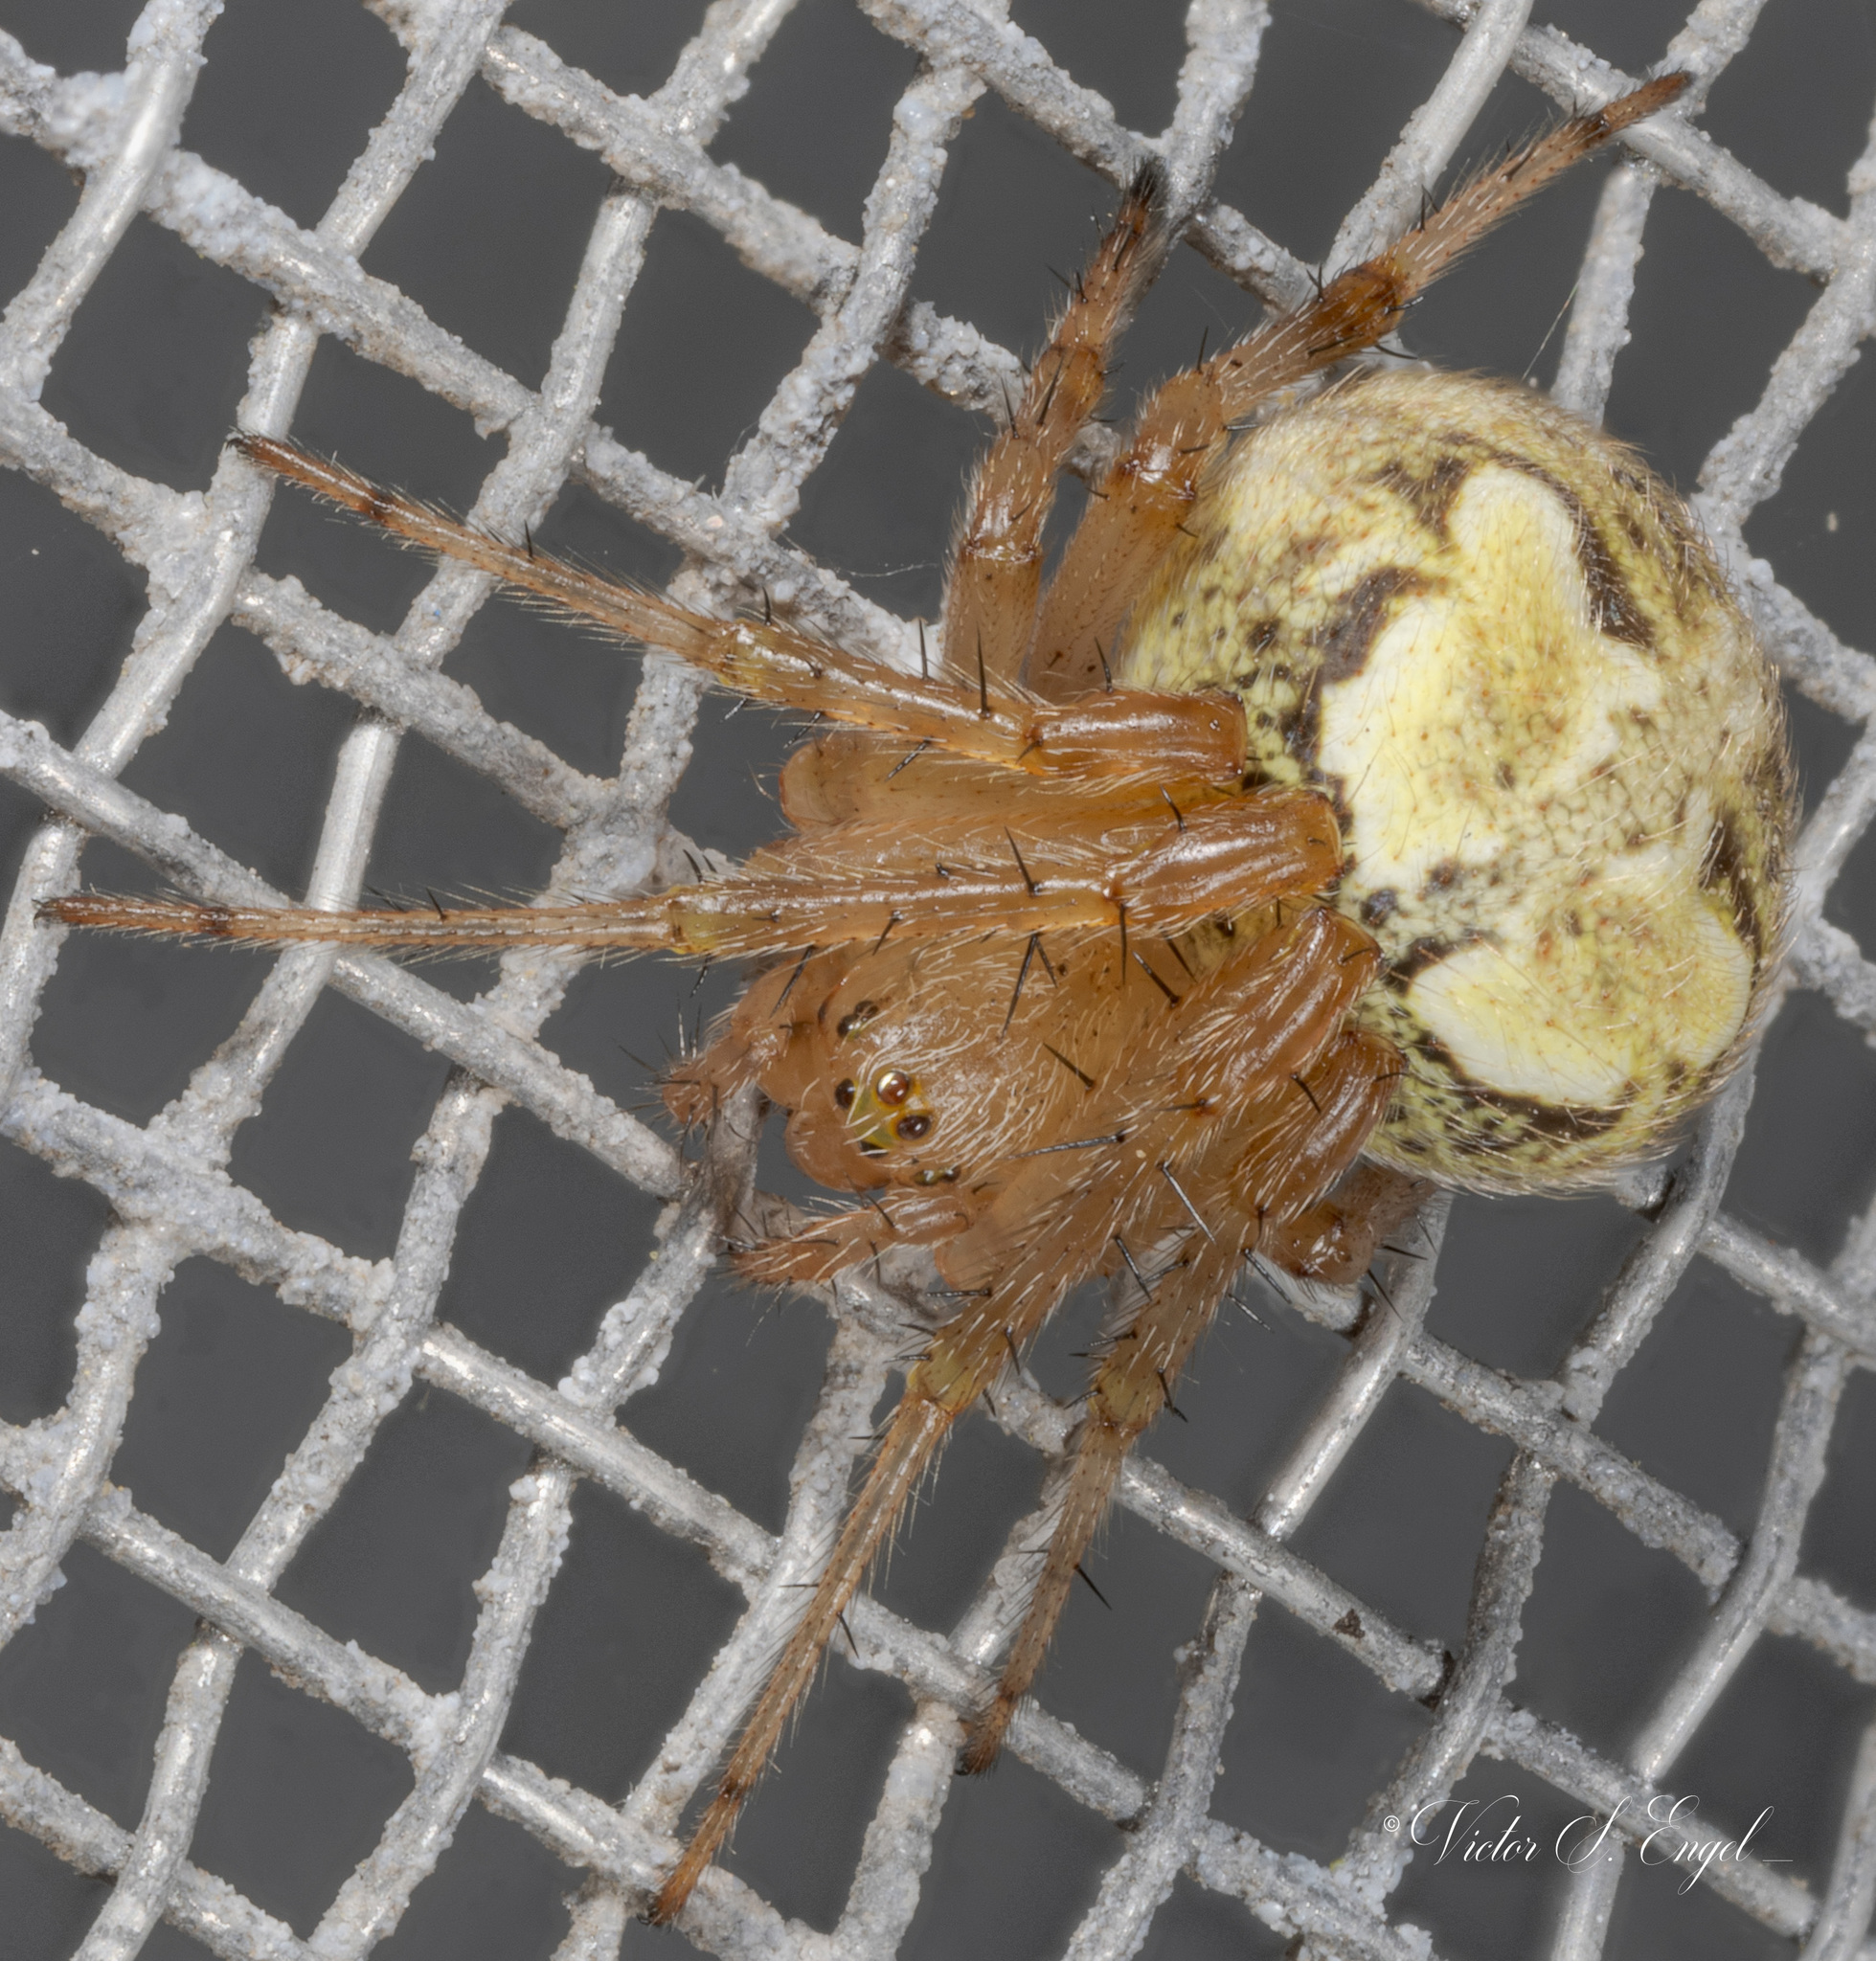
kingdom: Animalia
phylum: Arthropoda
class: Arachnida
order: Araneae
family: Araneidae
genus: Araneus
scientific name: Araneus pegnia
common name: Orb weavers
